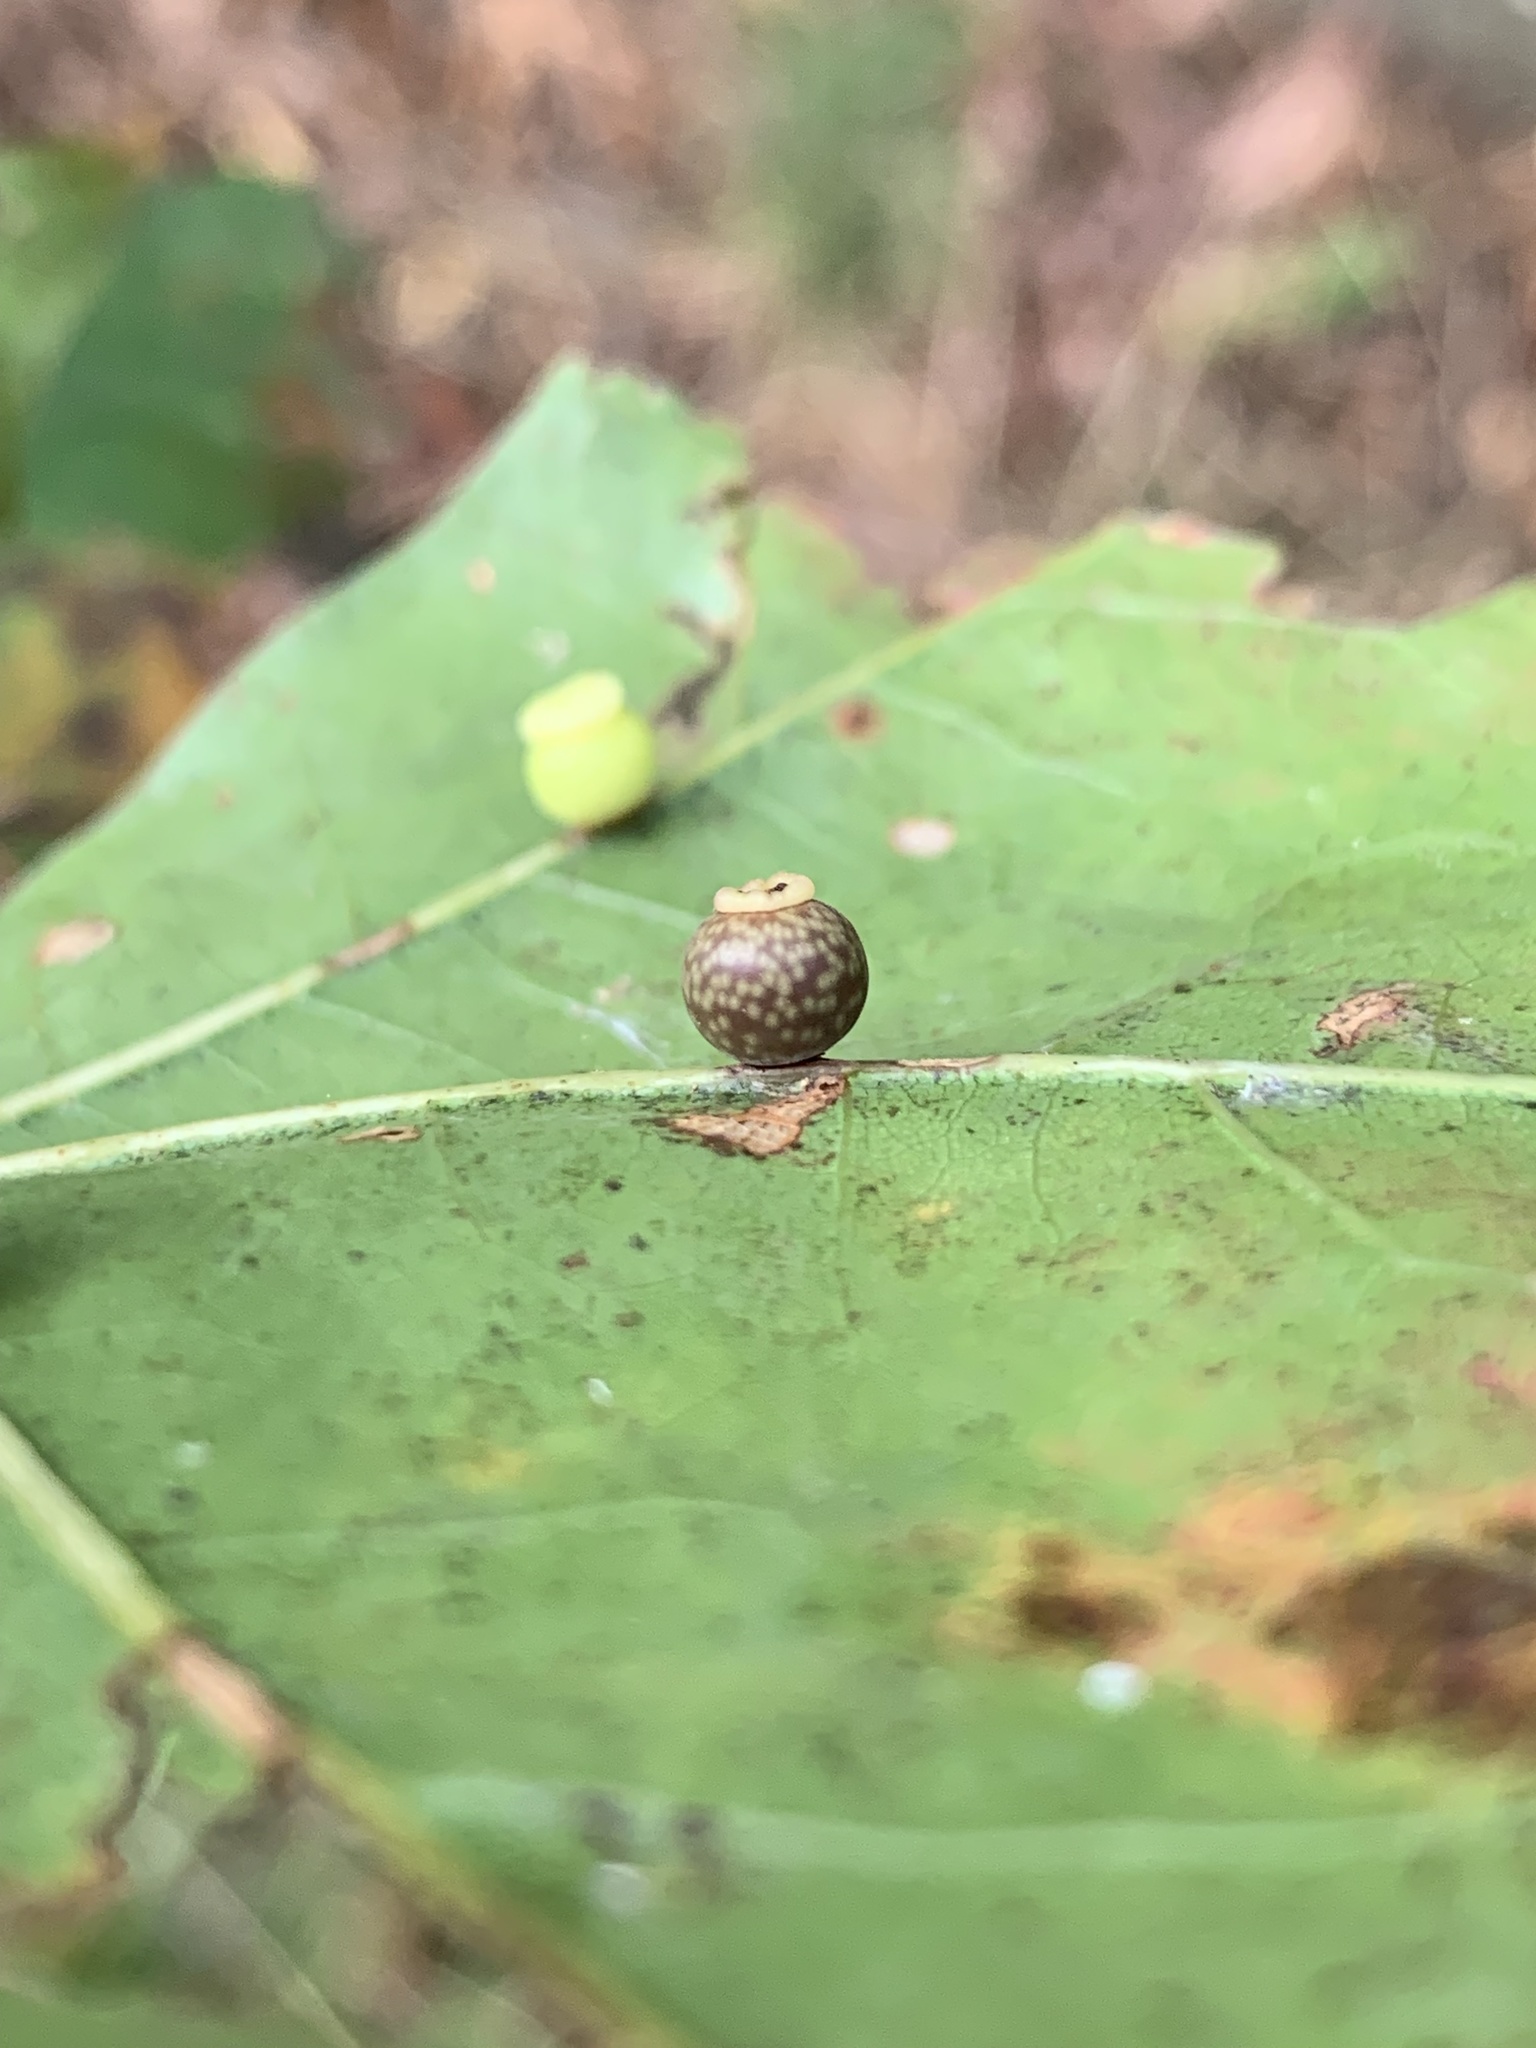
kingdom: Animalia
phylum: Arthropoda
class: Insecta
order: Hymenoptera
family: Cynipidae
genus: Kokkocynips
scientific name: Kokkocynips rileyi
